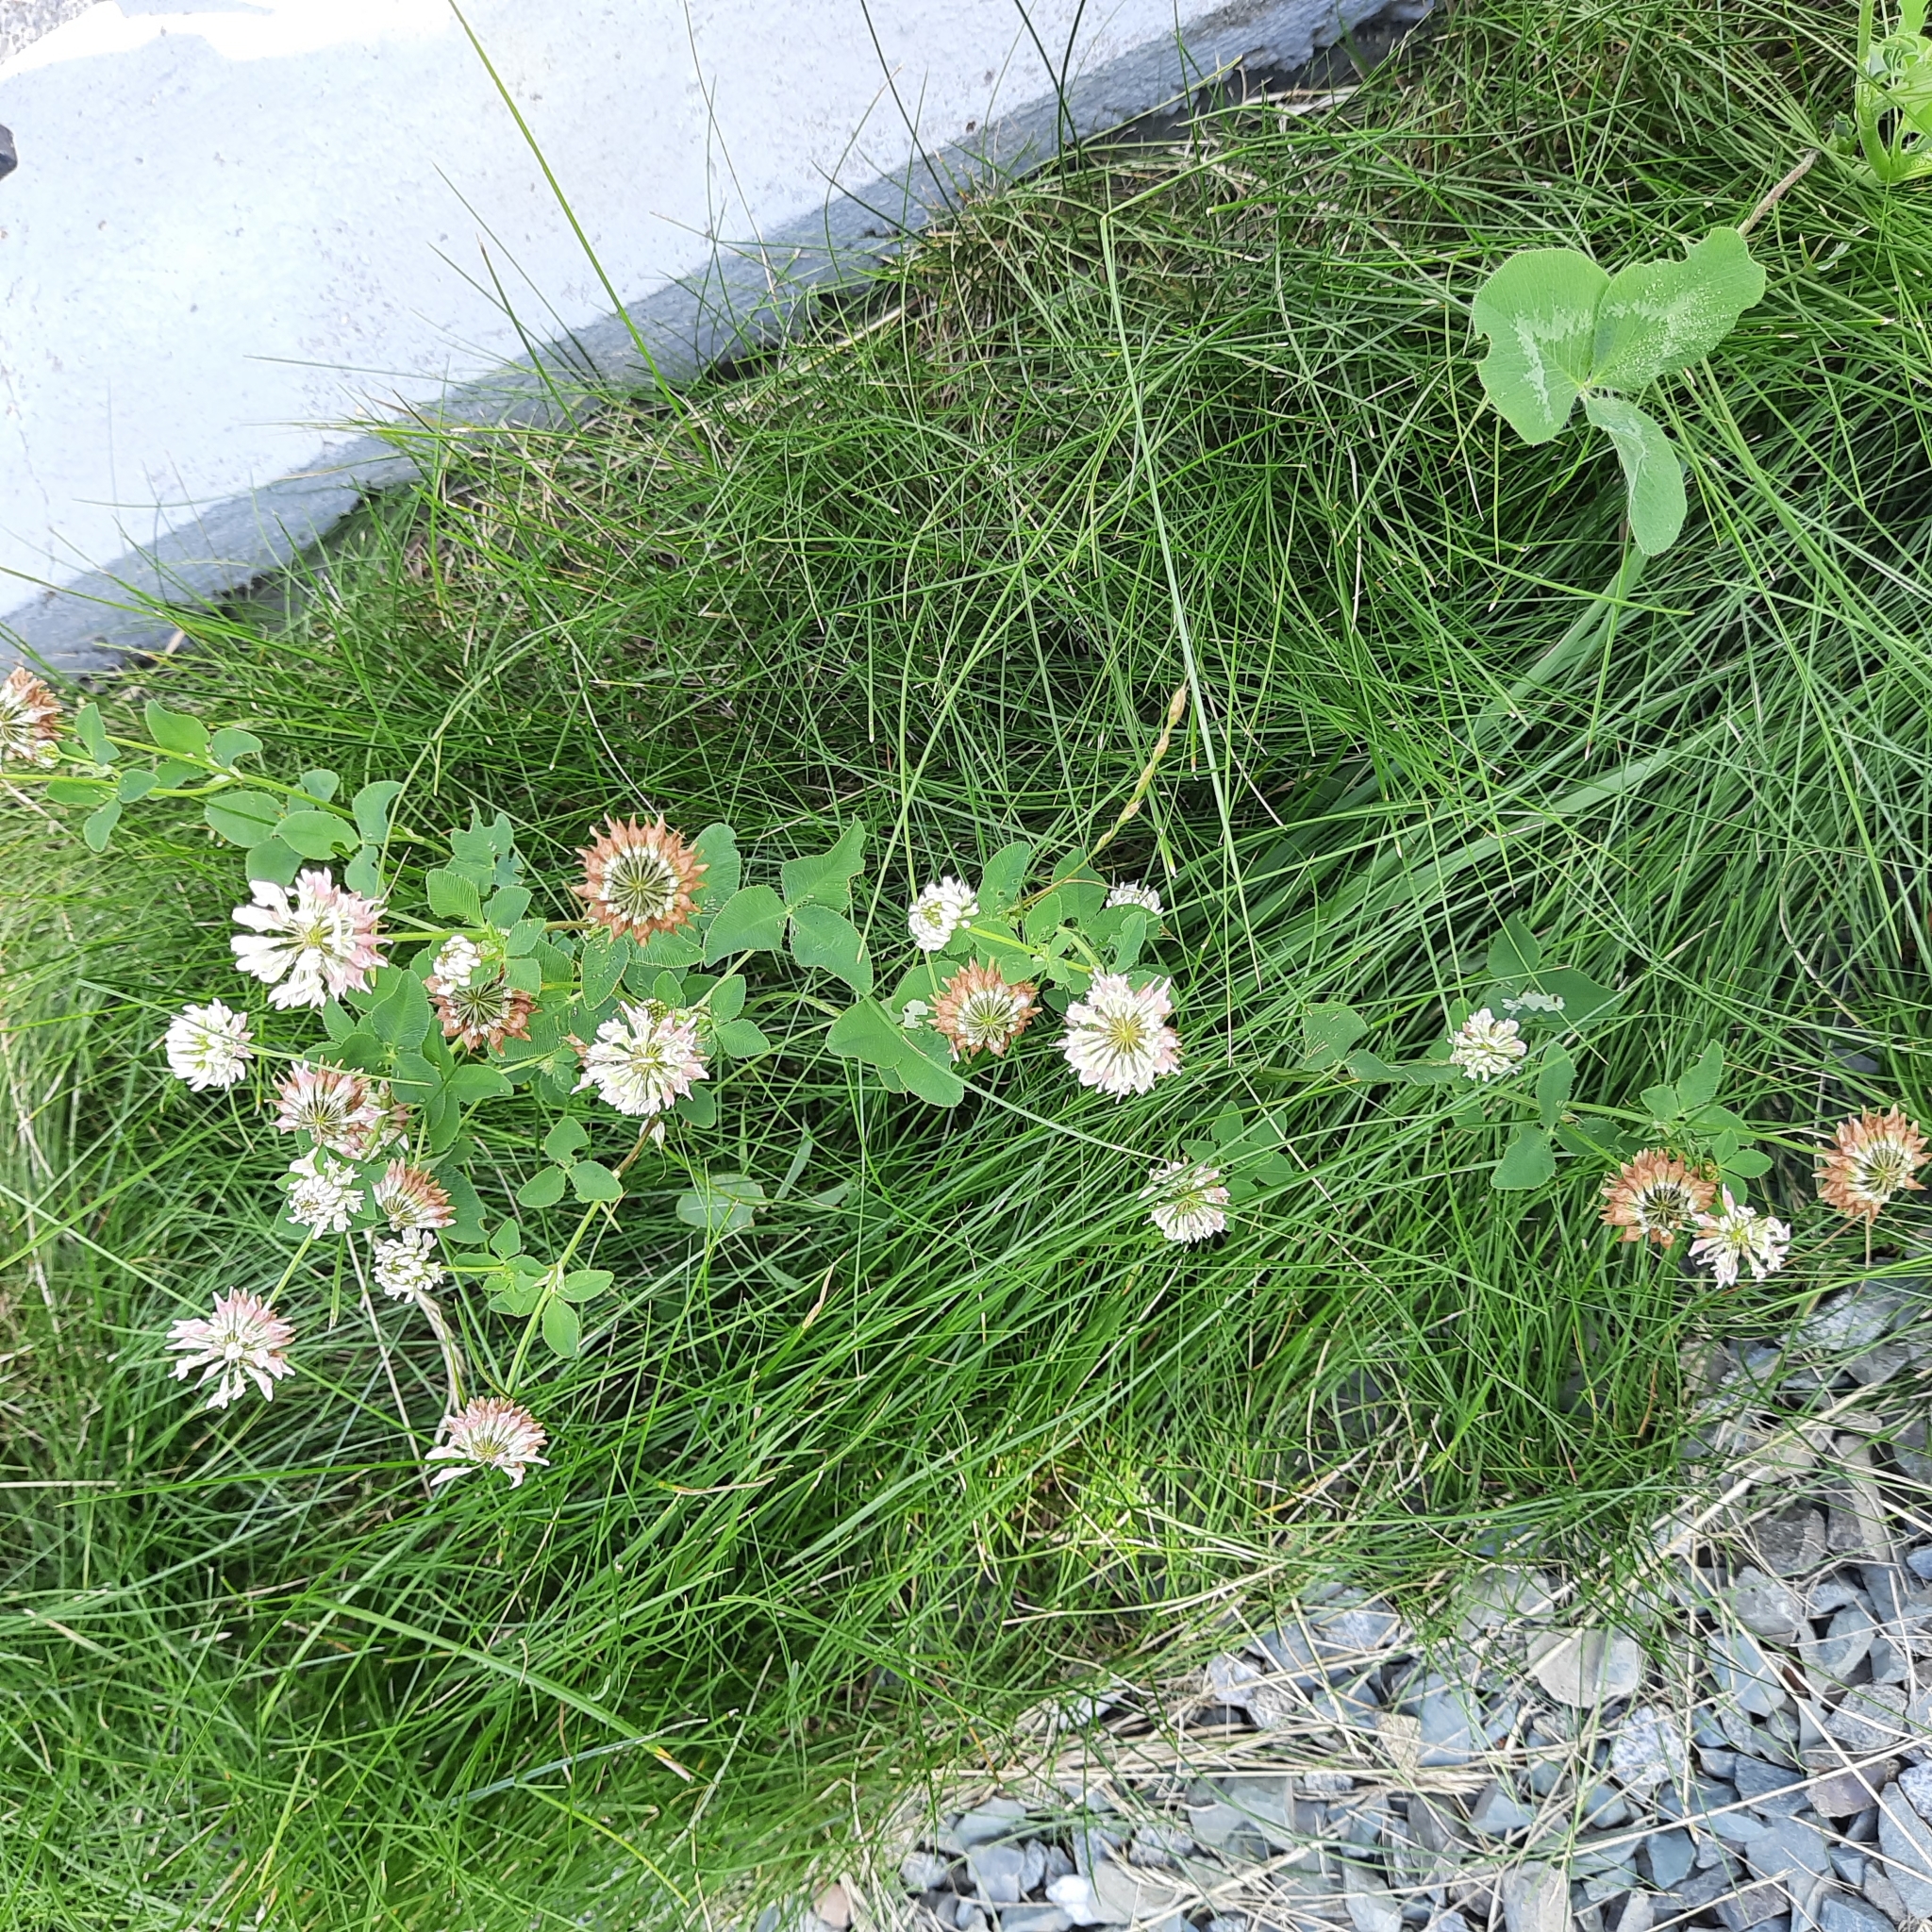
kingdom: Plantae
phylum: Tracheophyta
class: Magnoliopsida
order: Fabales
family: Fabaceae
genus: Trifolium
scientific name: Trifolium hybridum
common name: Alsike clover
